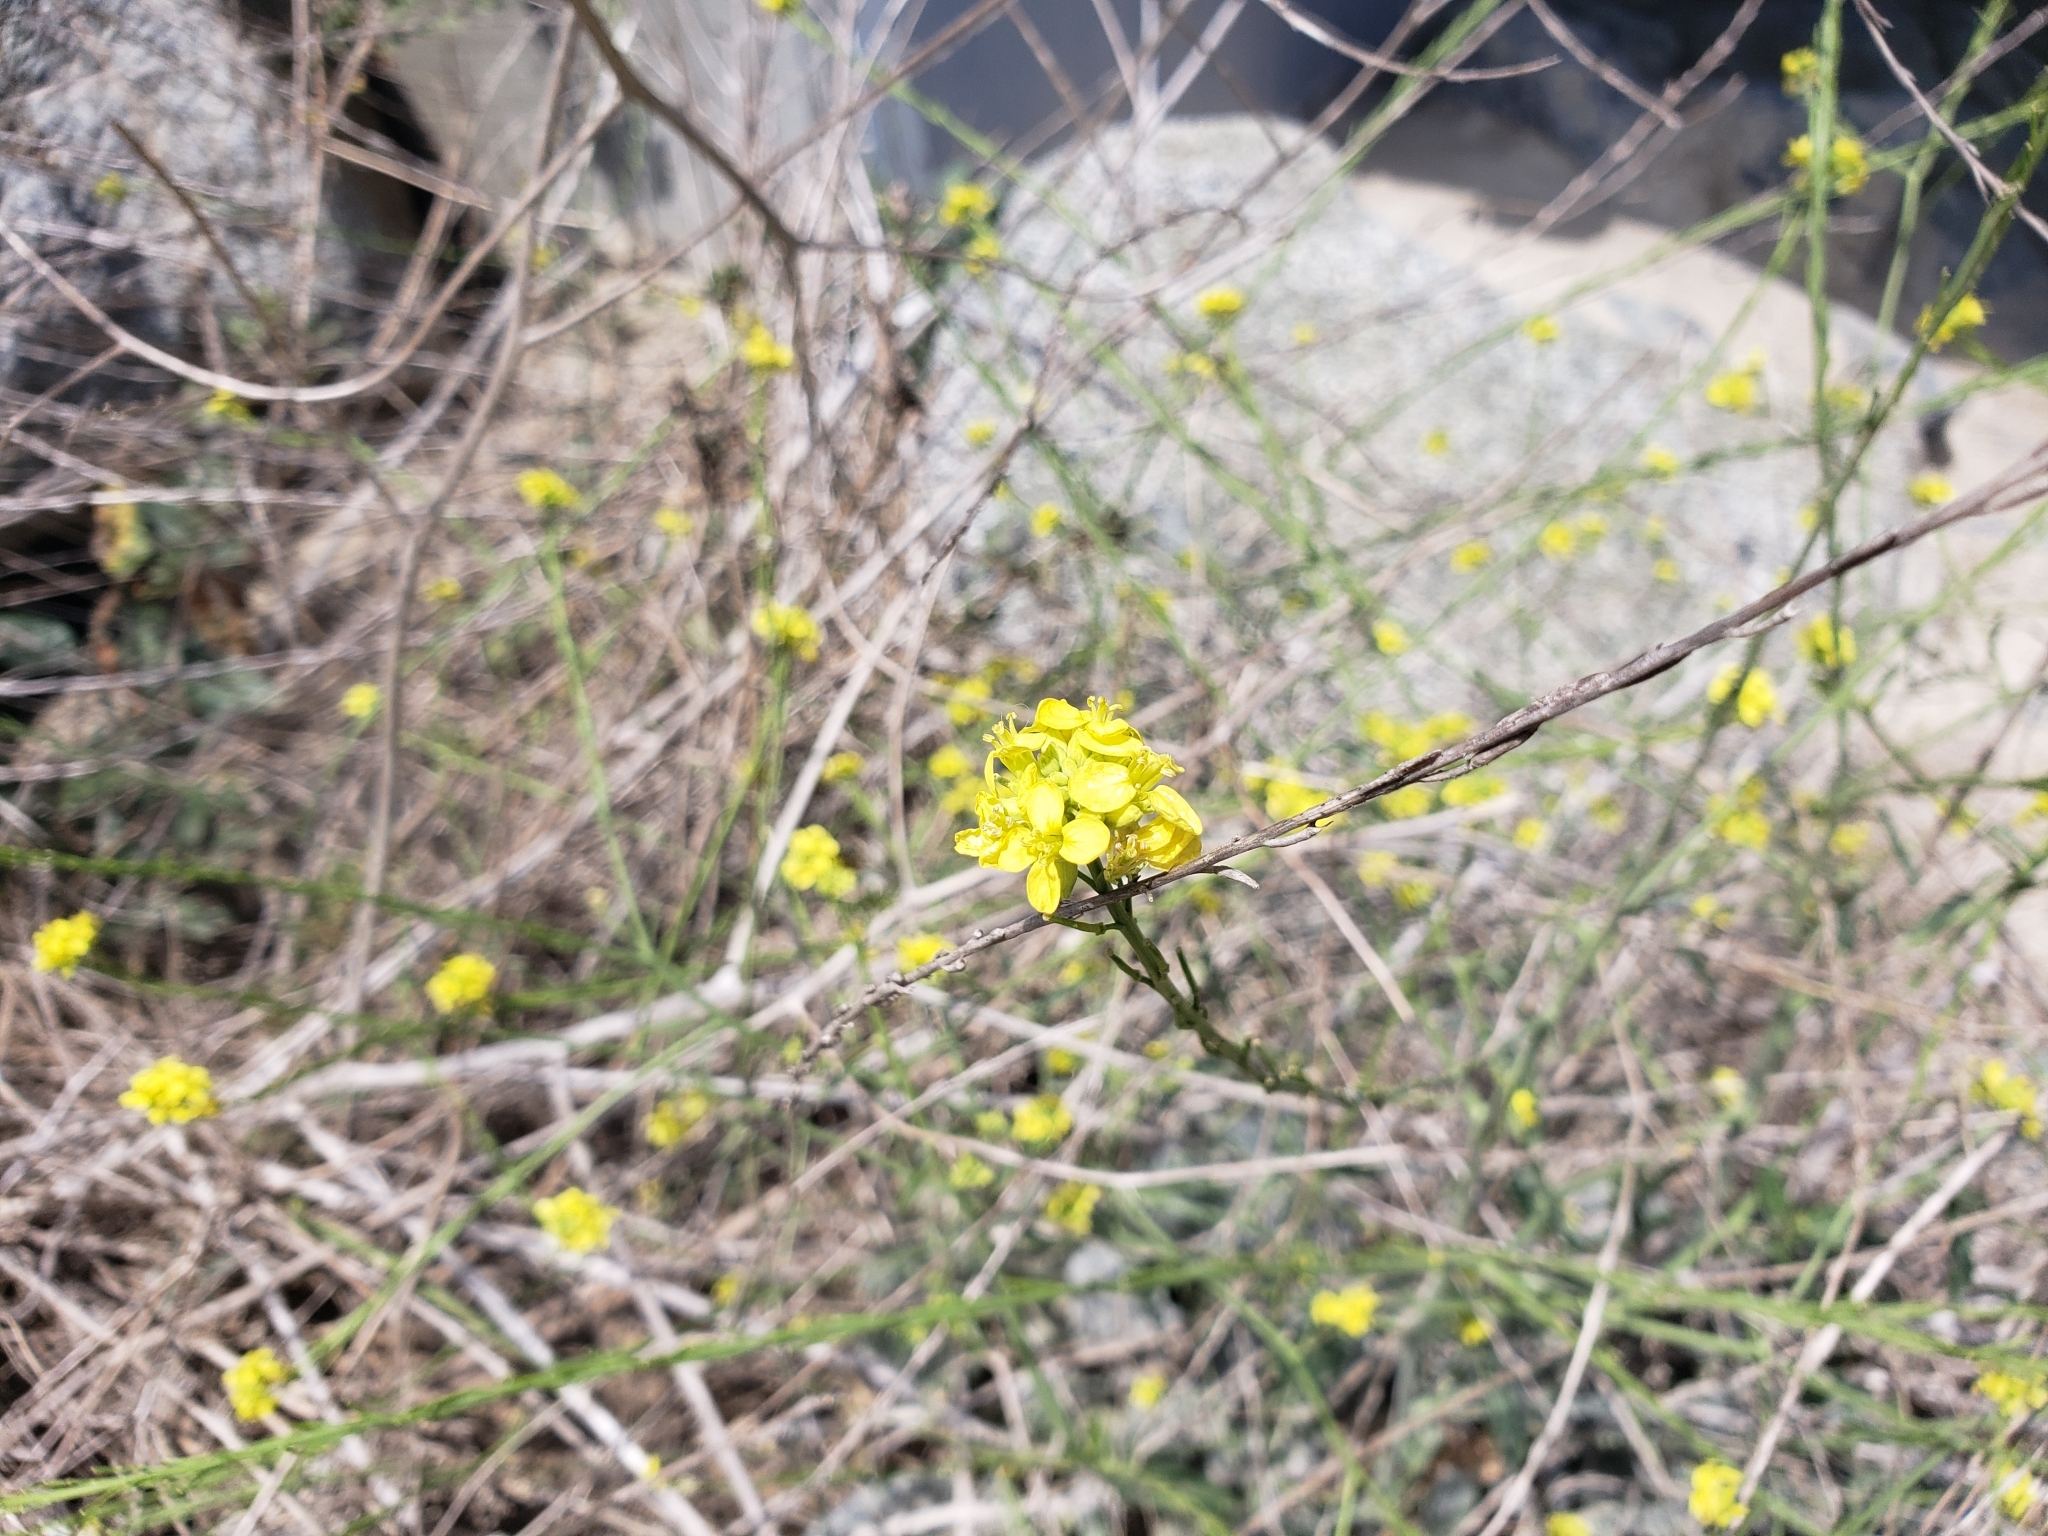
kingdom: Plantae
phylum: Tracheophyta
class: Magnoliopsida
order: Brassicales
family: Brassicaceae
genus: Hirschfeldia
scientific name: Hirschfeldia incana
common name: Hoary mustard
